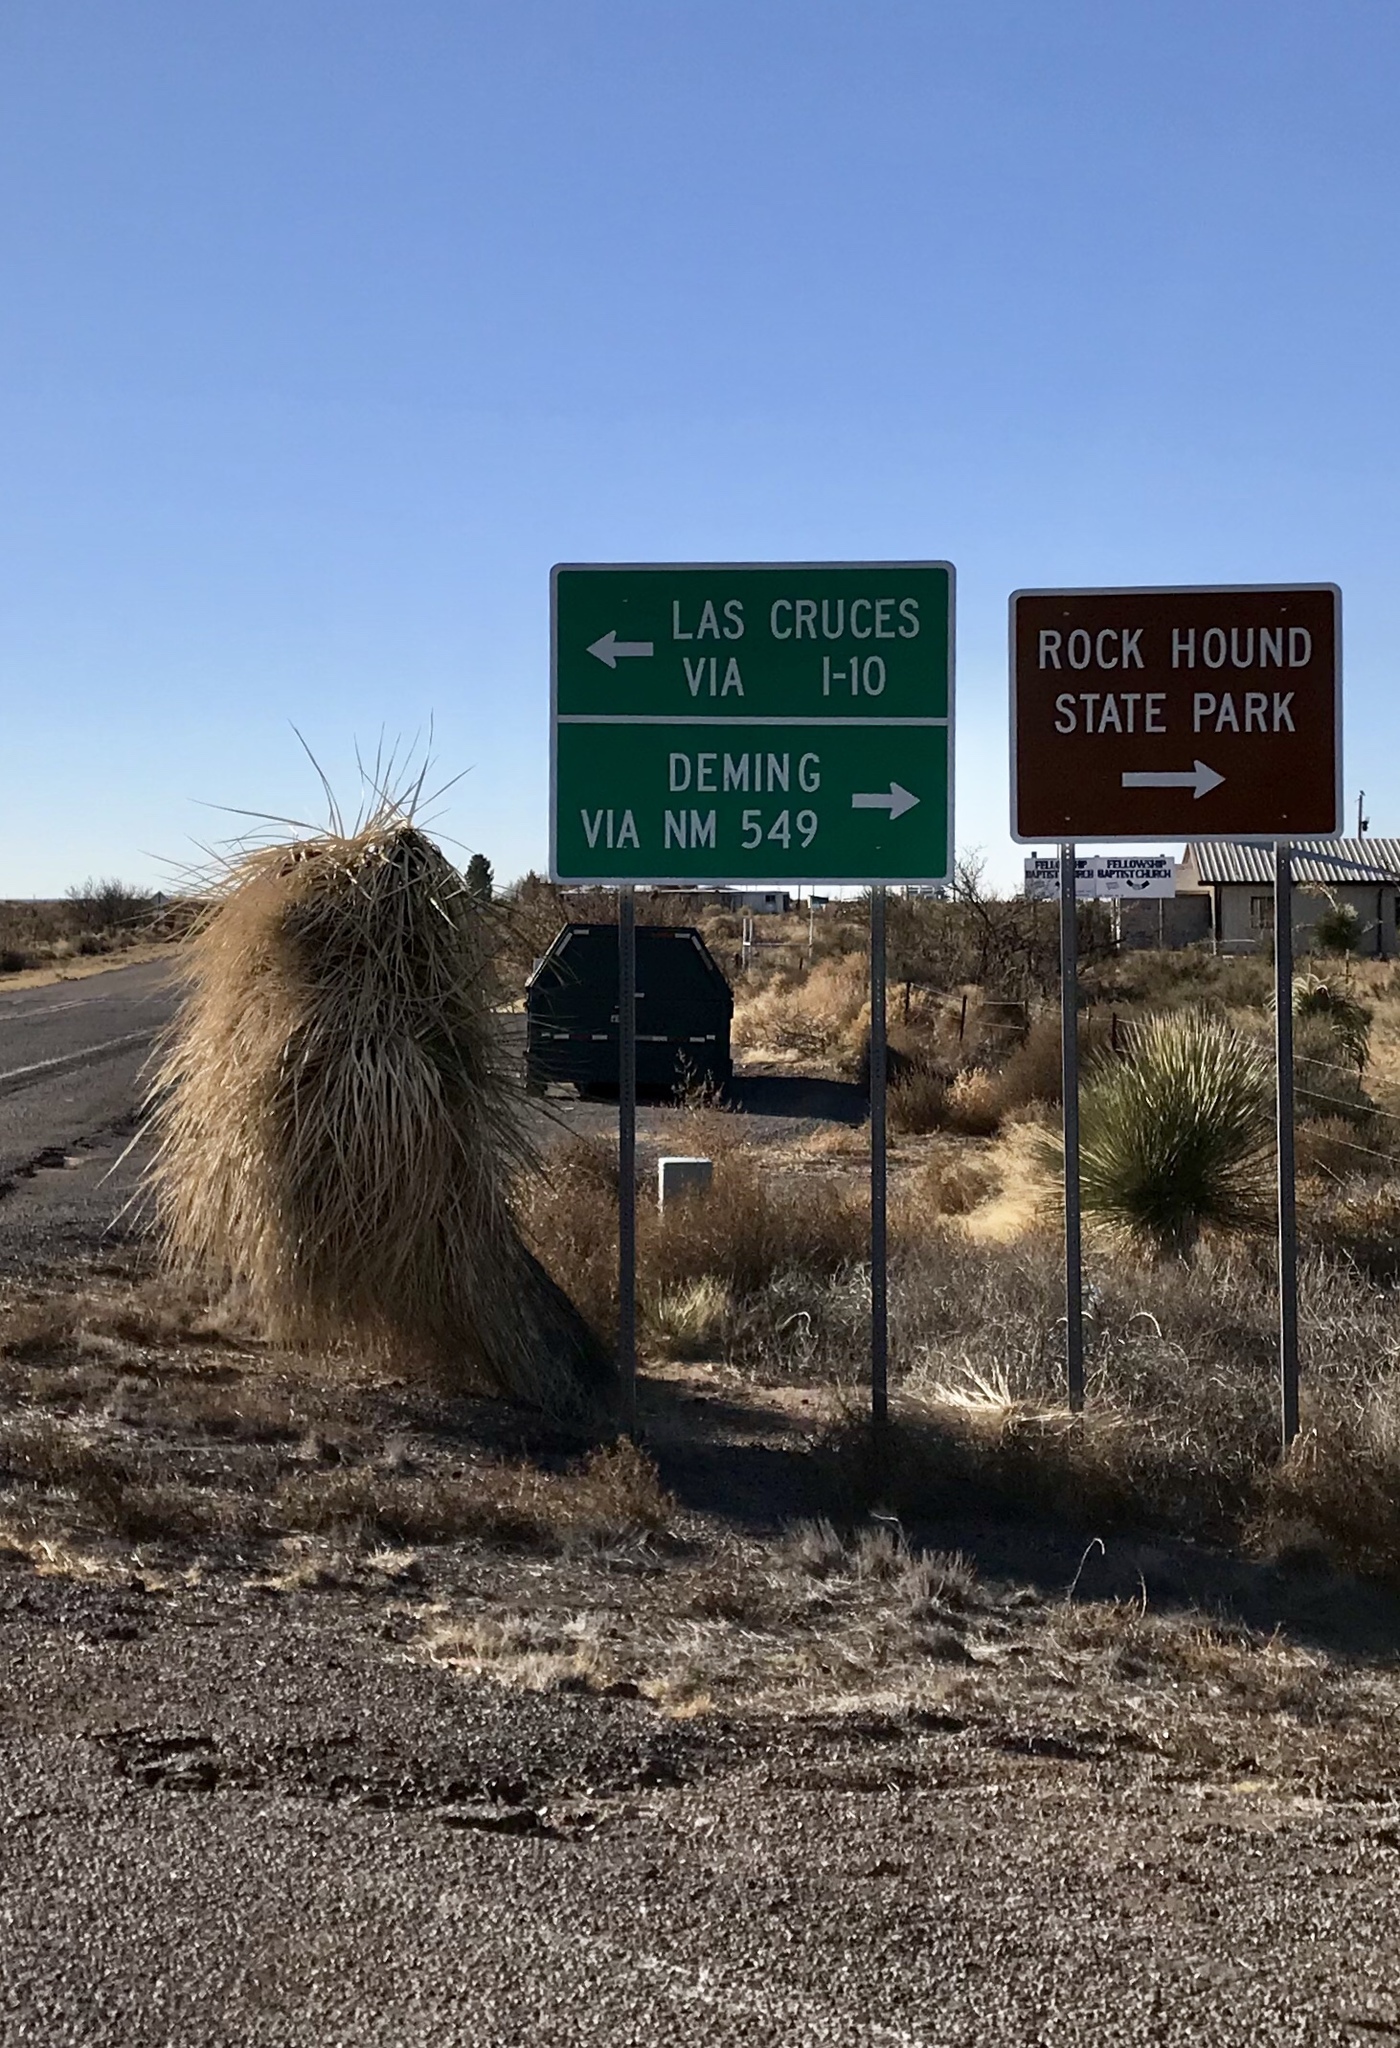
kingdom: Plantae
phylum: Tracheophyta
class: Liliopsida
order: Asparagales
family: Asparagaceae
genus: Yucca
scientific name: Yucca elata
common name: Palmella
